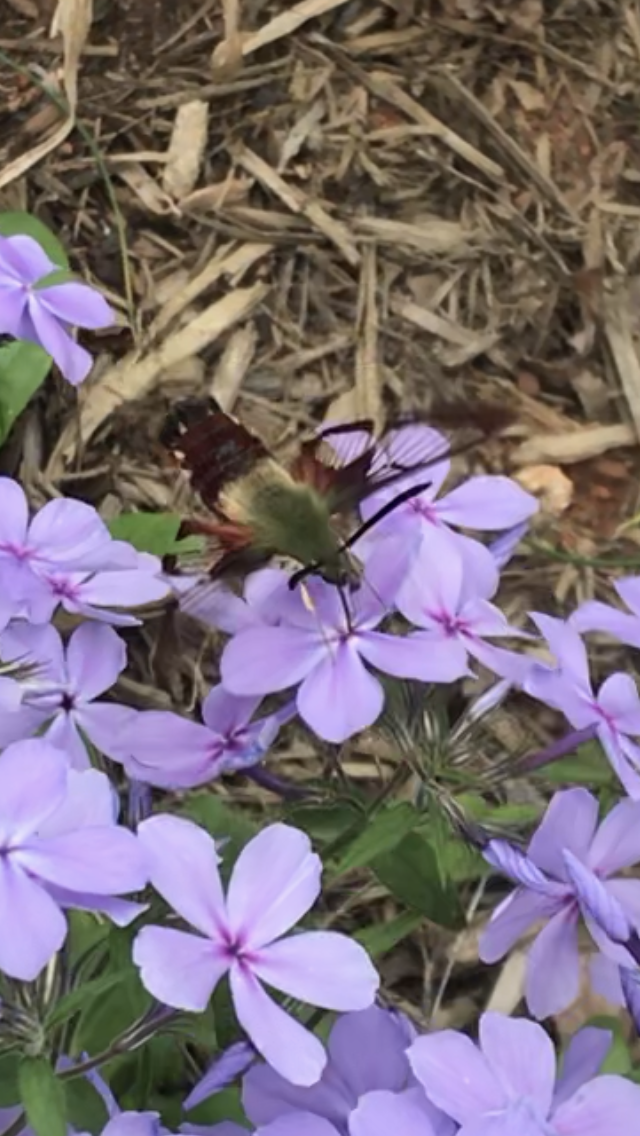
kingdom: Animalia
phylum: Arthropoda
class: Insecta
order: Lepidoptera
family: Sphingidae
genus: Hemaris
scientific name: Hemaris thysbe
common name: Common clear-wing
